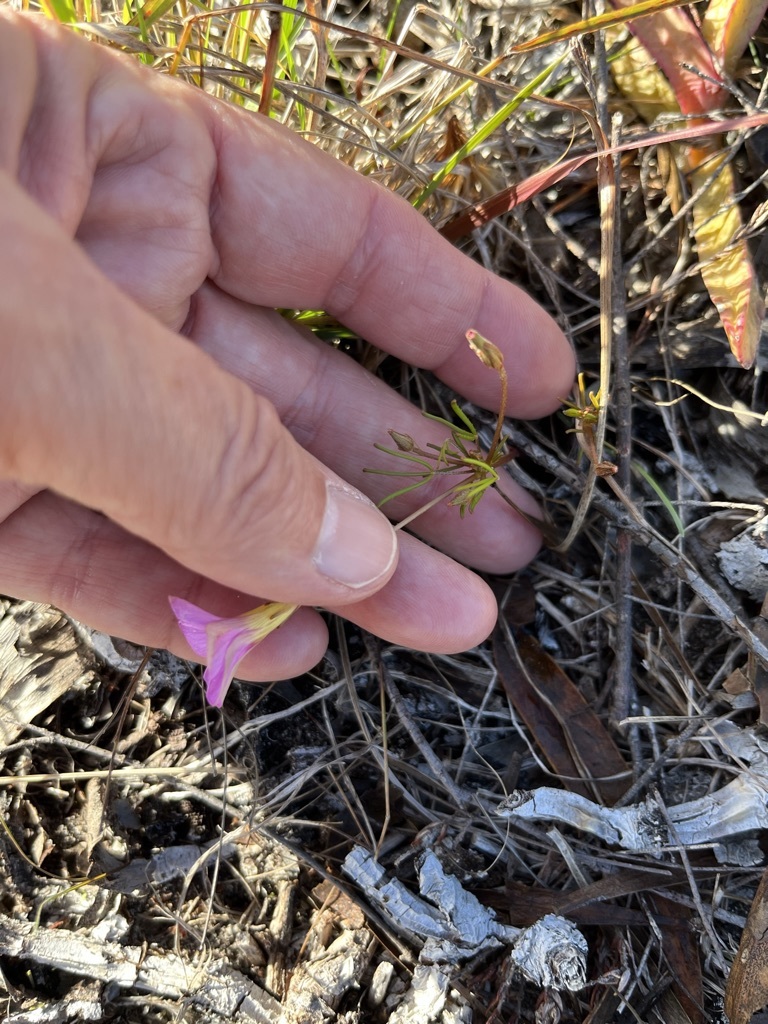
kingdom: Plantae
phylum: Tracheophyta
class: Magnoliopsida
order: Oxalidales
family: Oxalidaceae
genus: Oxalis
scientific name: Oxalis polyphylla
